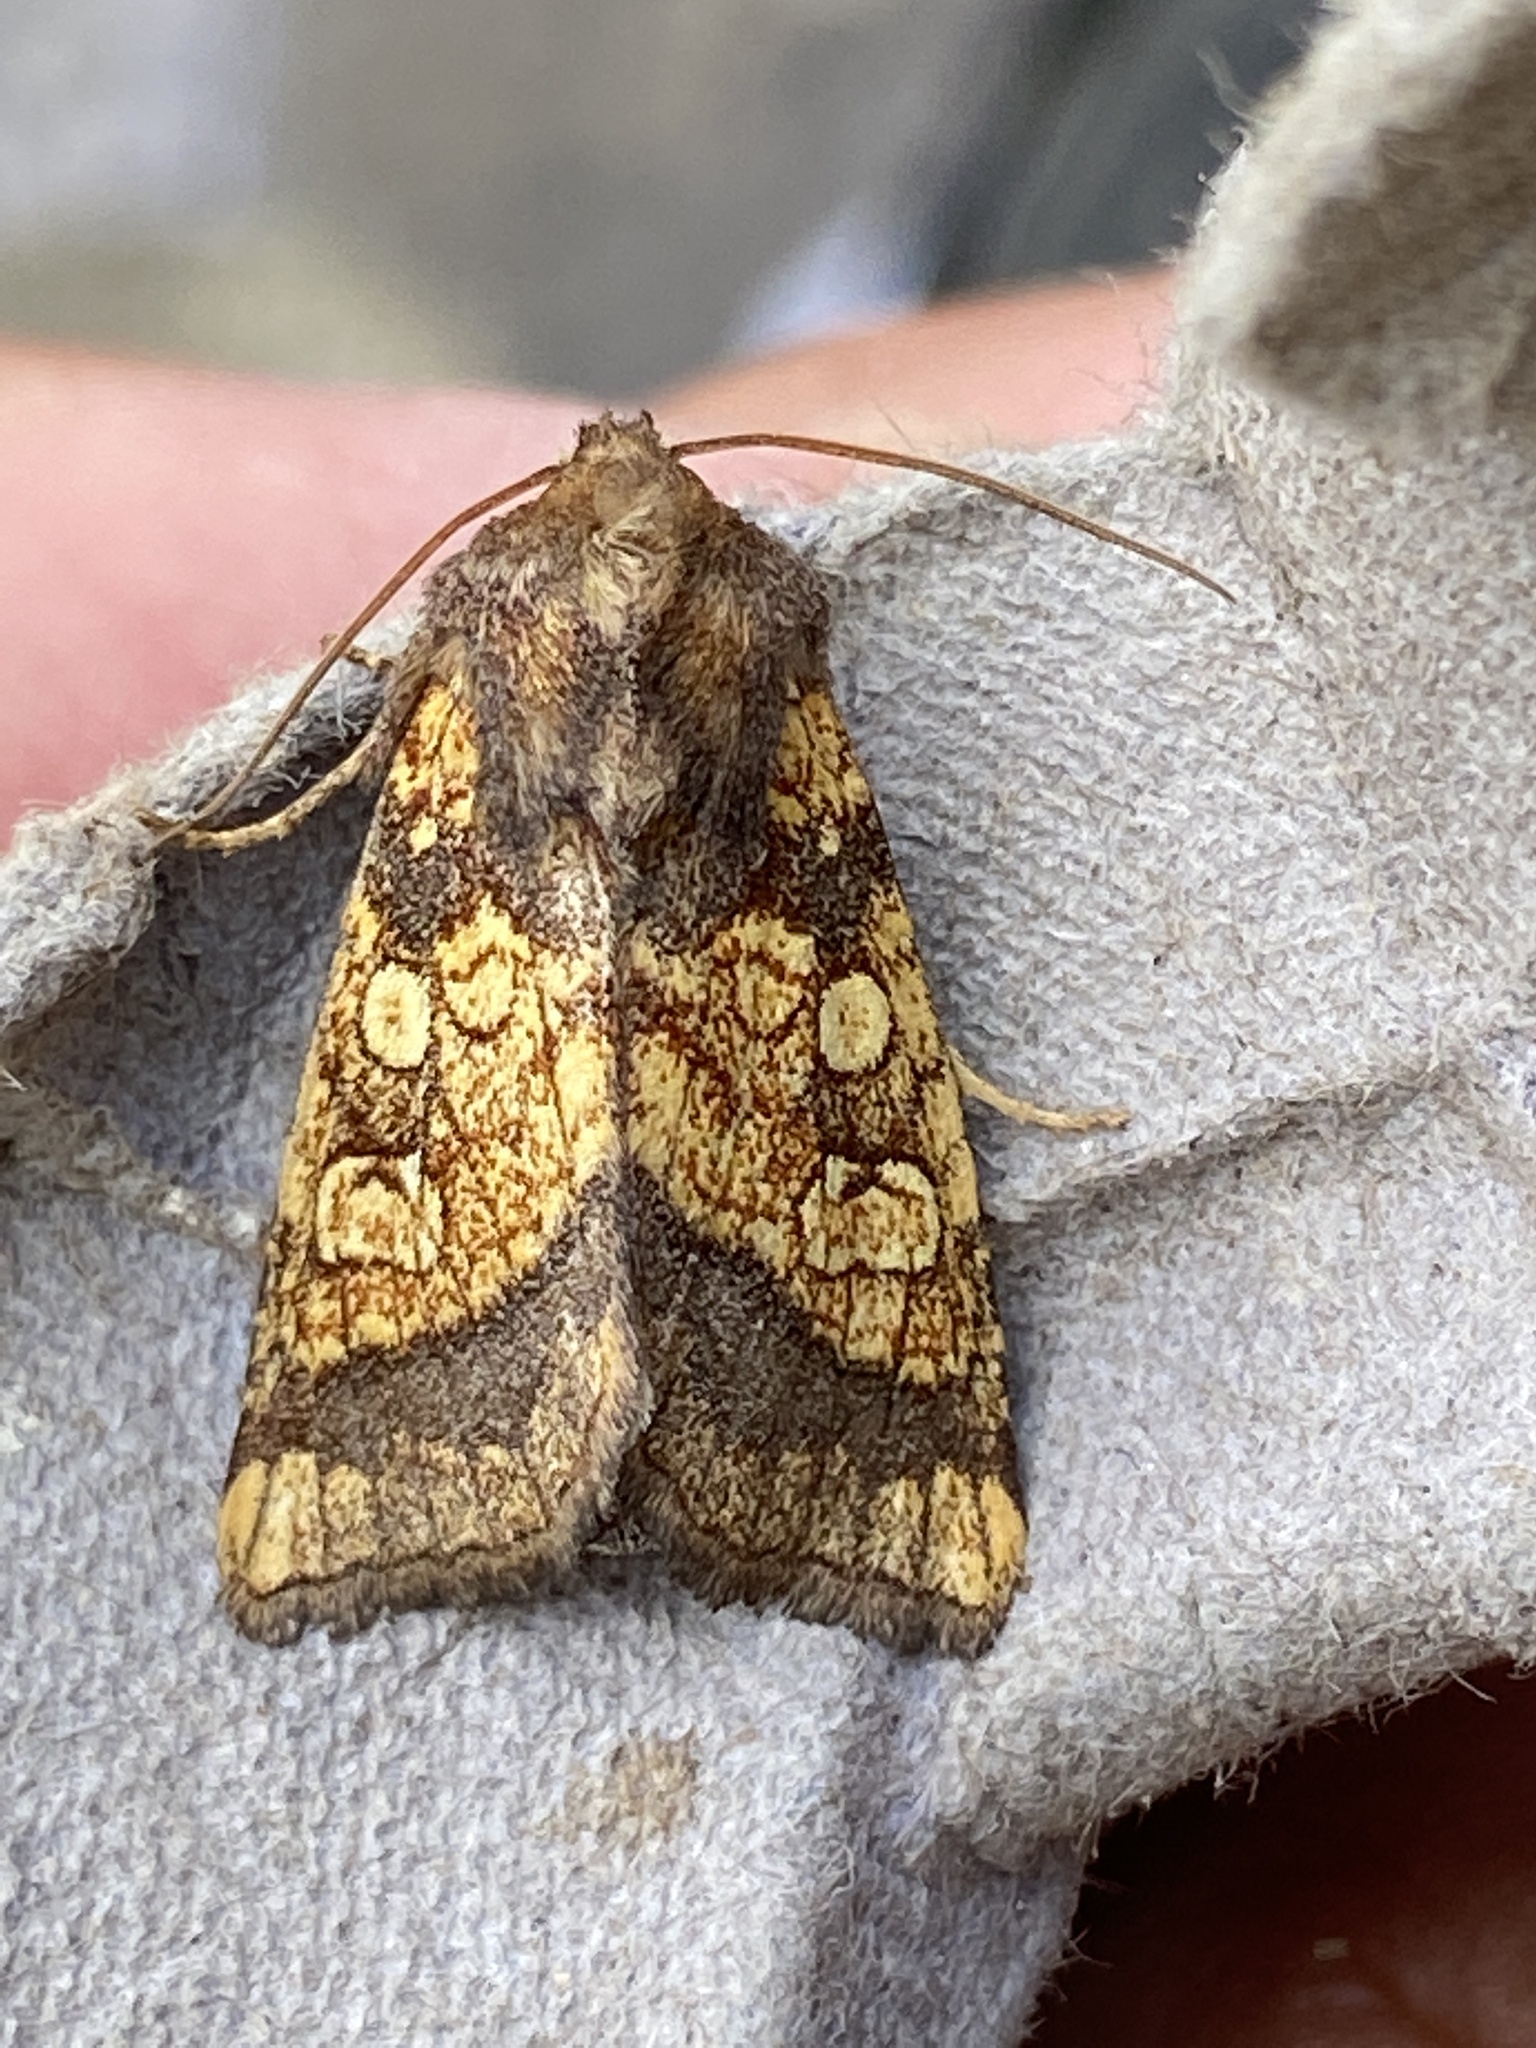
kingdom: Animalia
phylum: Arthropoda
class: Insecta
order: Lepidoptera
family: Noctuidae
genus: Gortyna
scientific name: Gortyna flavago
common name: Frosted orange
